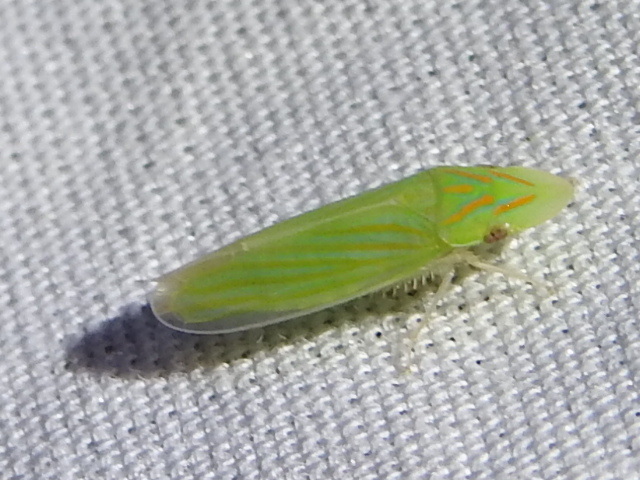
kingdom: Animalia
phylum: Arthropoda
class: Insecta
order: Hemiptera
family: Cicadellidae
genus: Spangbergiella
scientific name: Spangbergiella vulnerata
